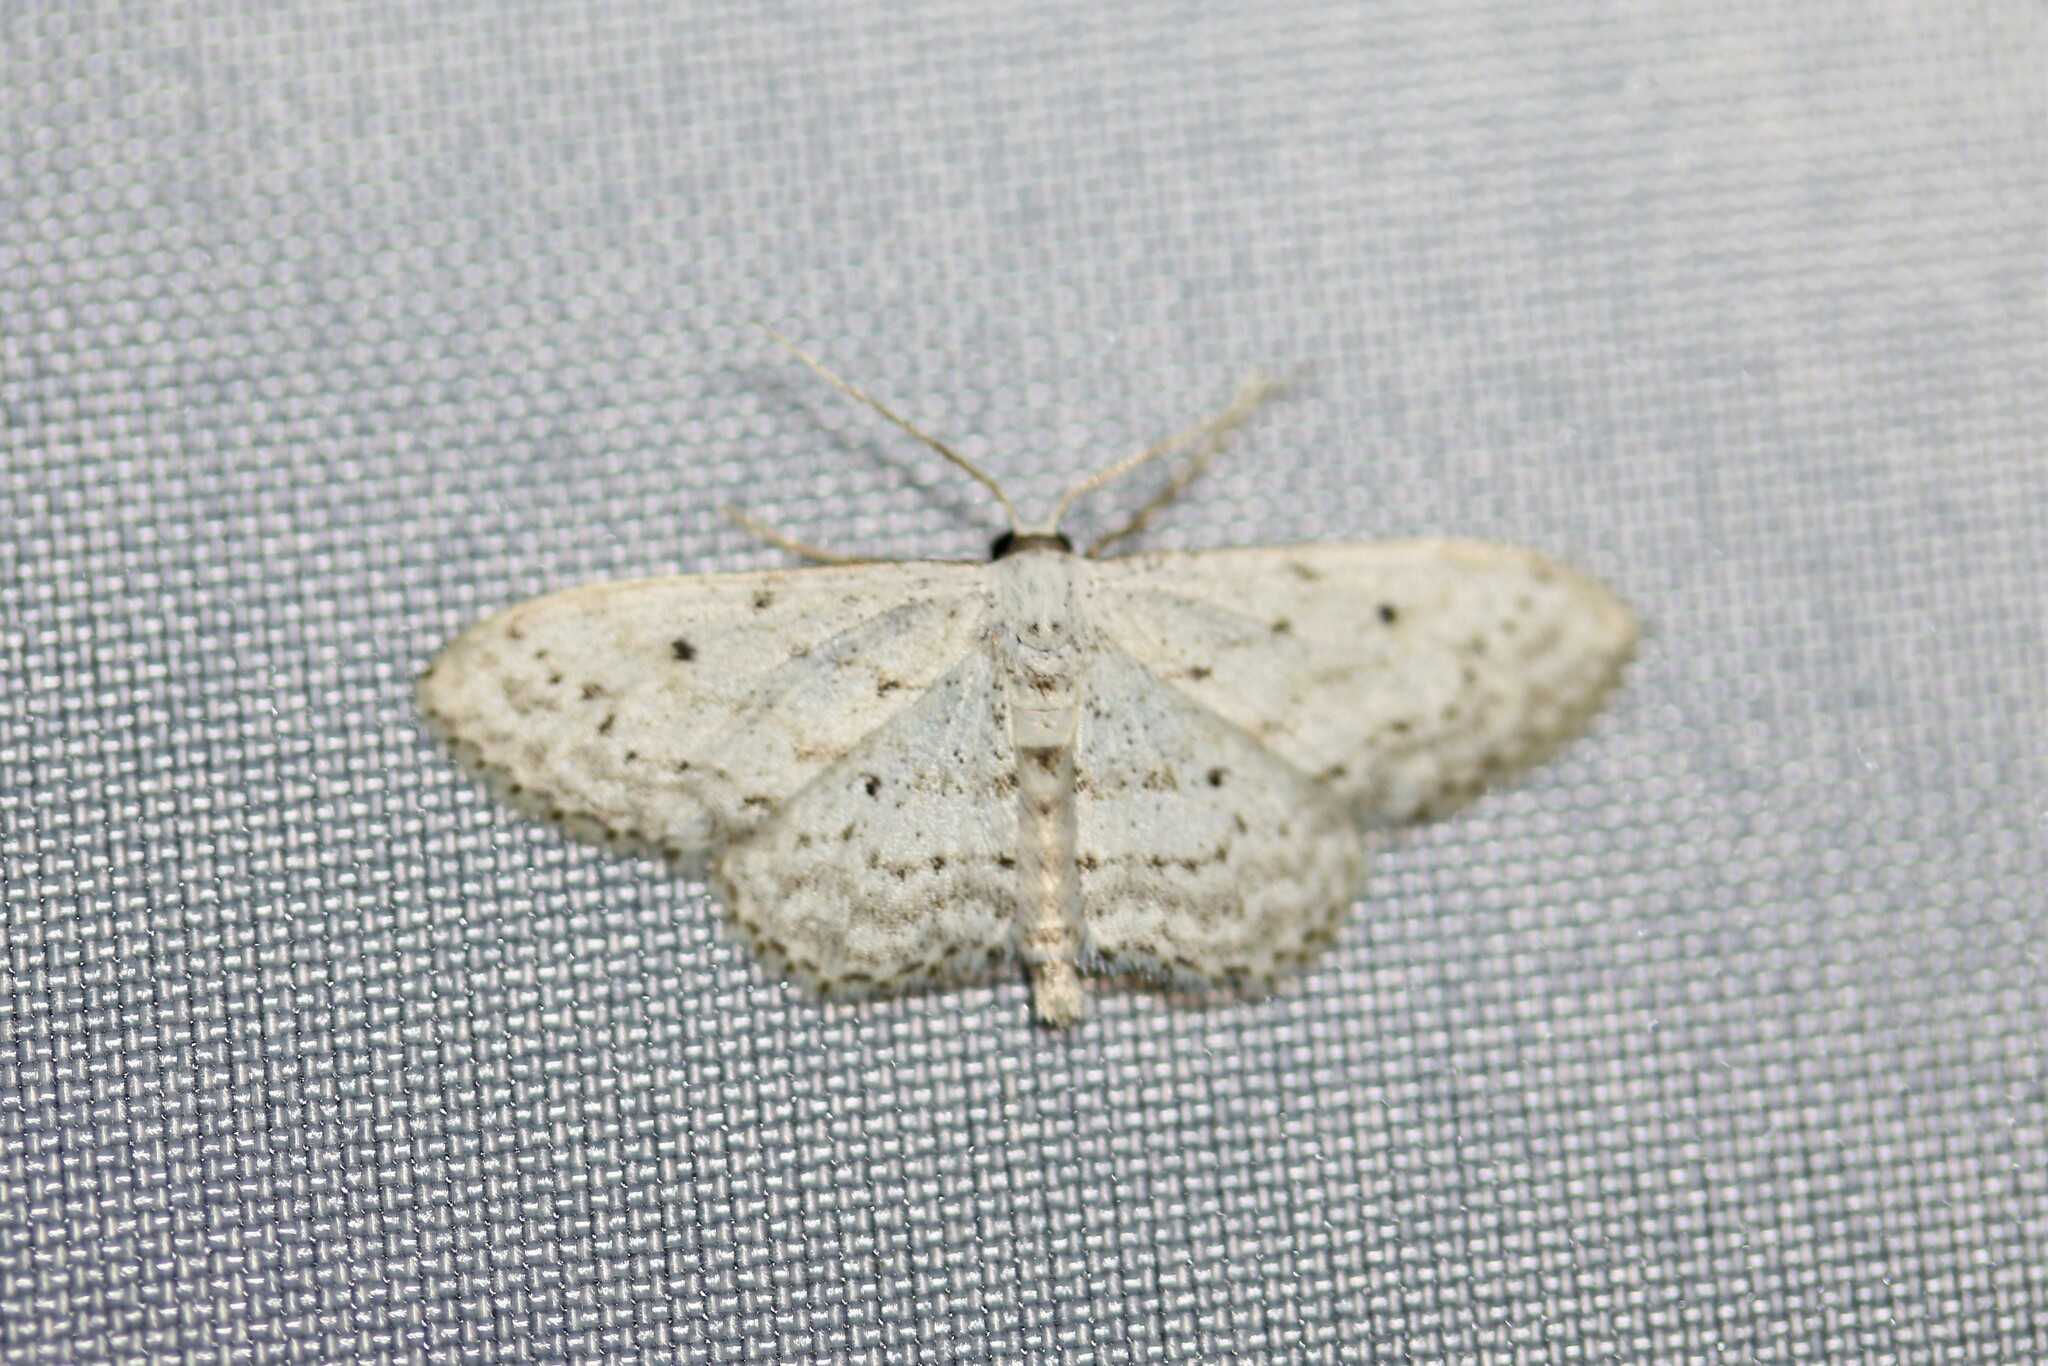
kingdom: Animalia
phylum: Arthropoda
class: Insecta
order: Lepidoptera
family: Geometridae
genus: Idaea
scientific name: Idaea seriata
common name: Small dusty wave
